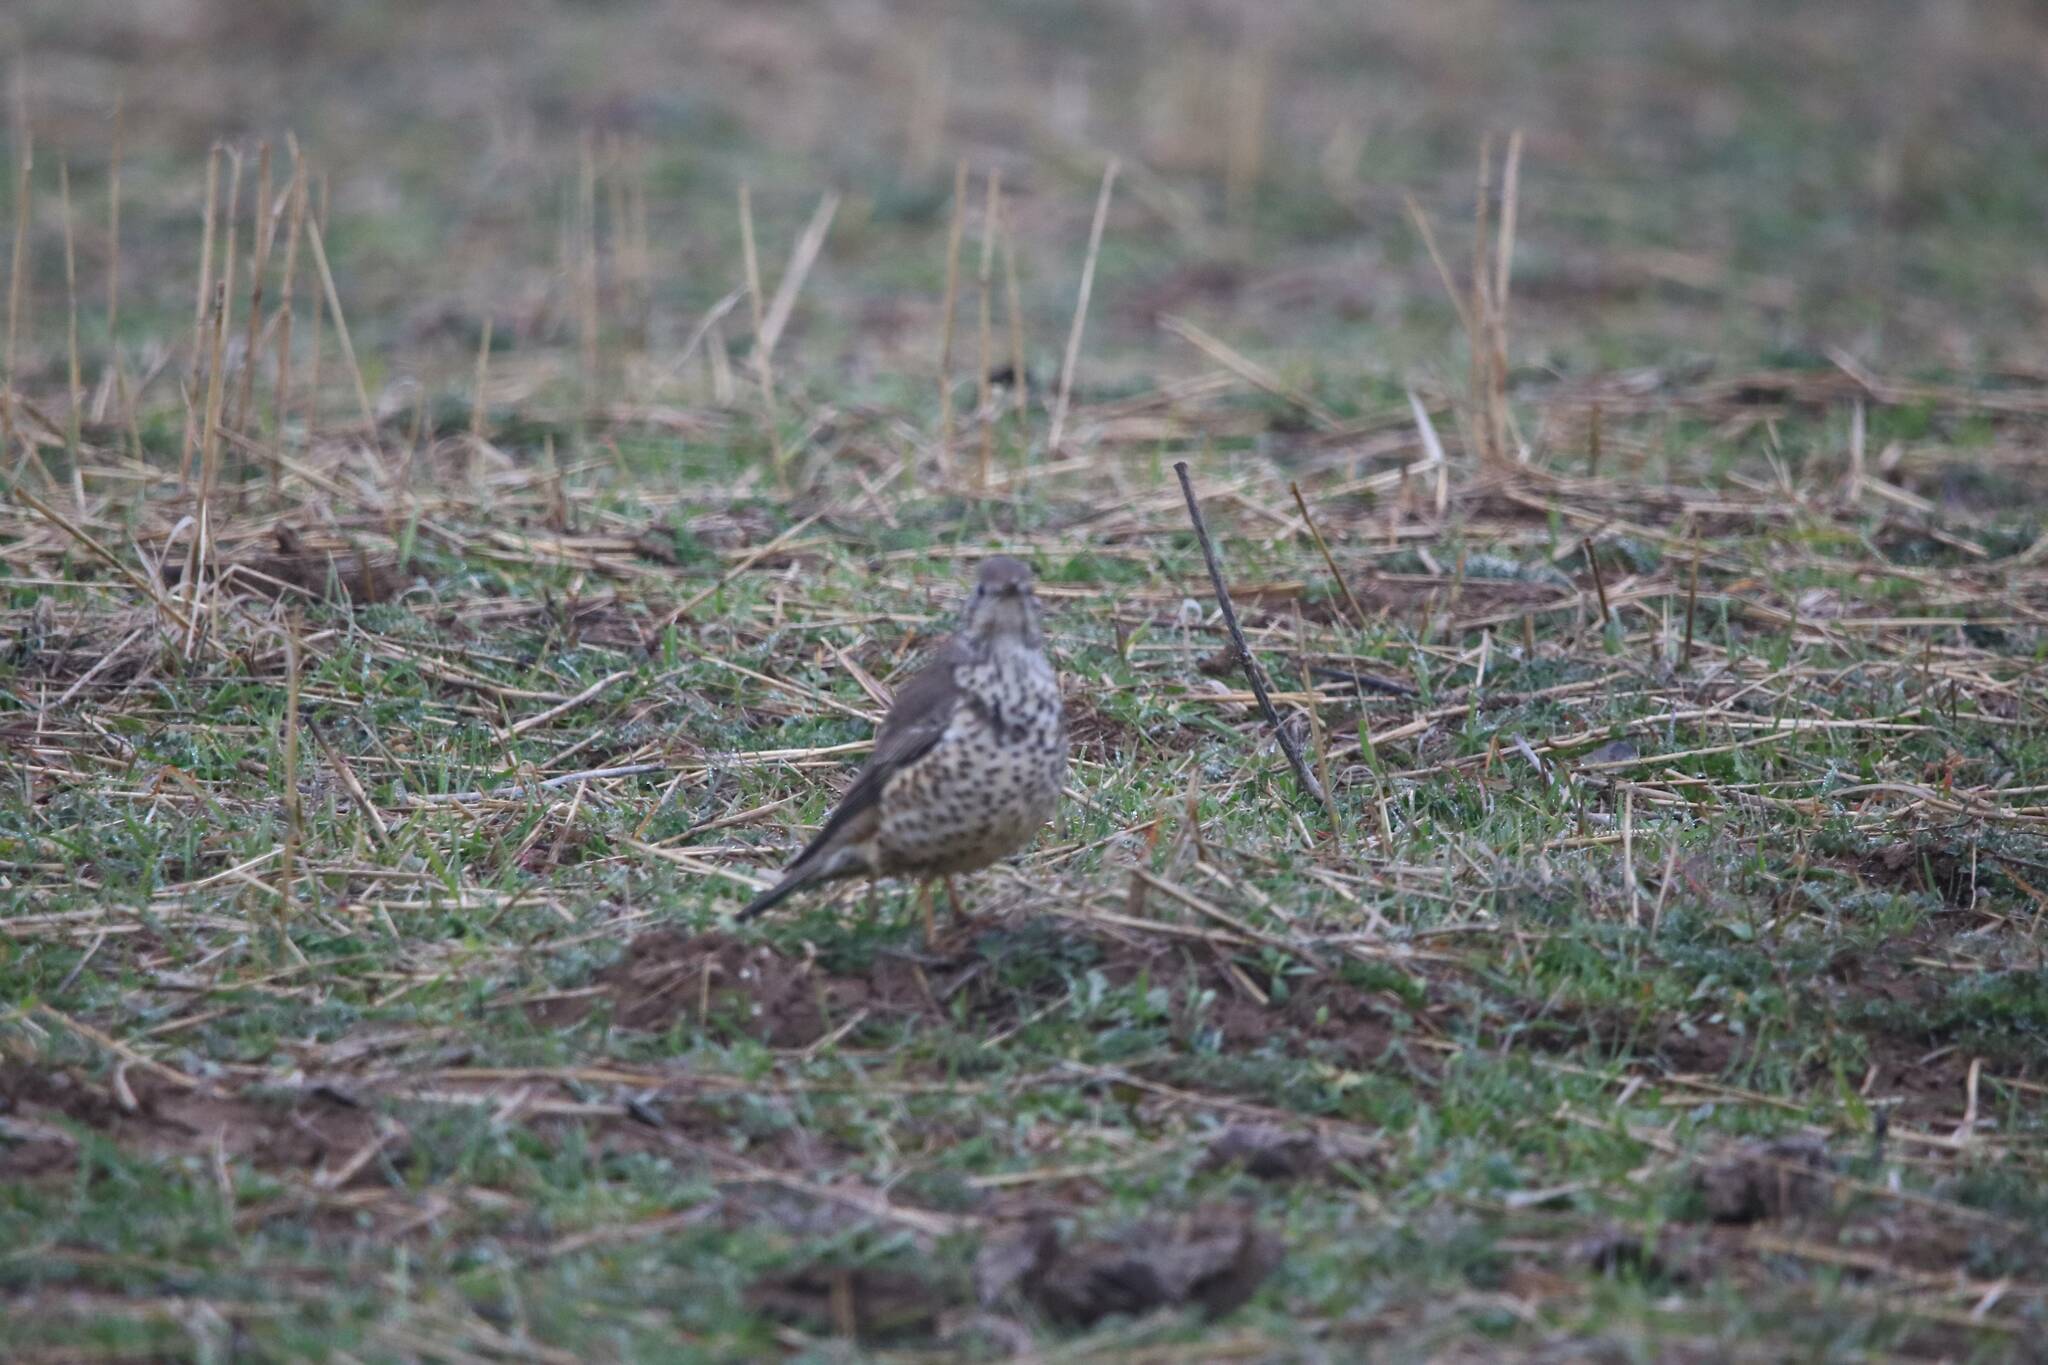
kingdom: Animalia
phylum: Chordata
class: Aves
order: Passeriformes
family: Turdidae
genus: Turdus
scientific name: Turdus viscivorus
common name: Mistle thrush
